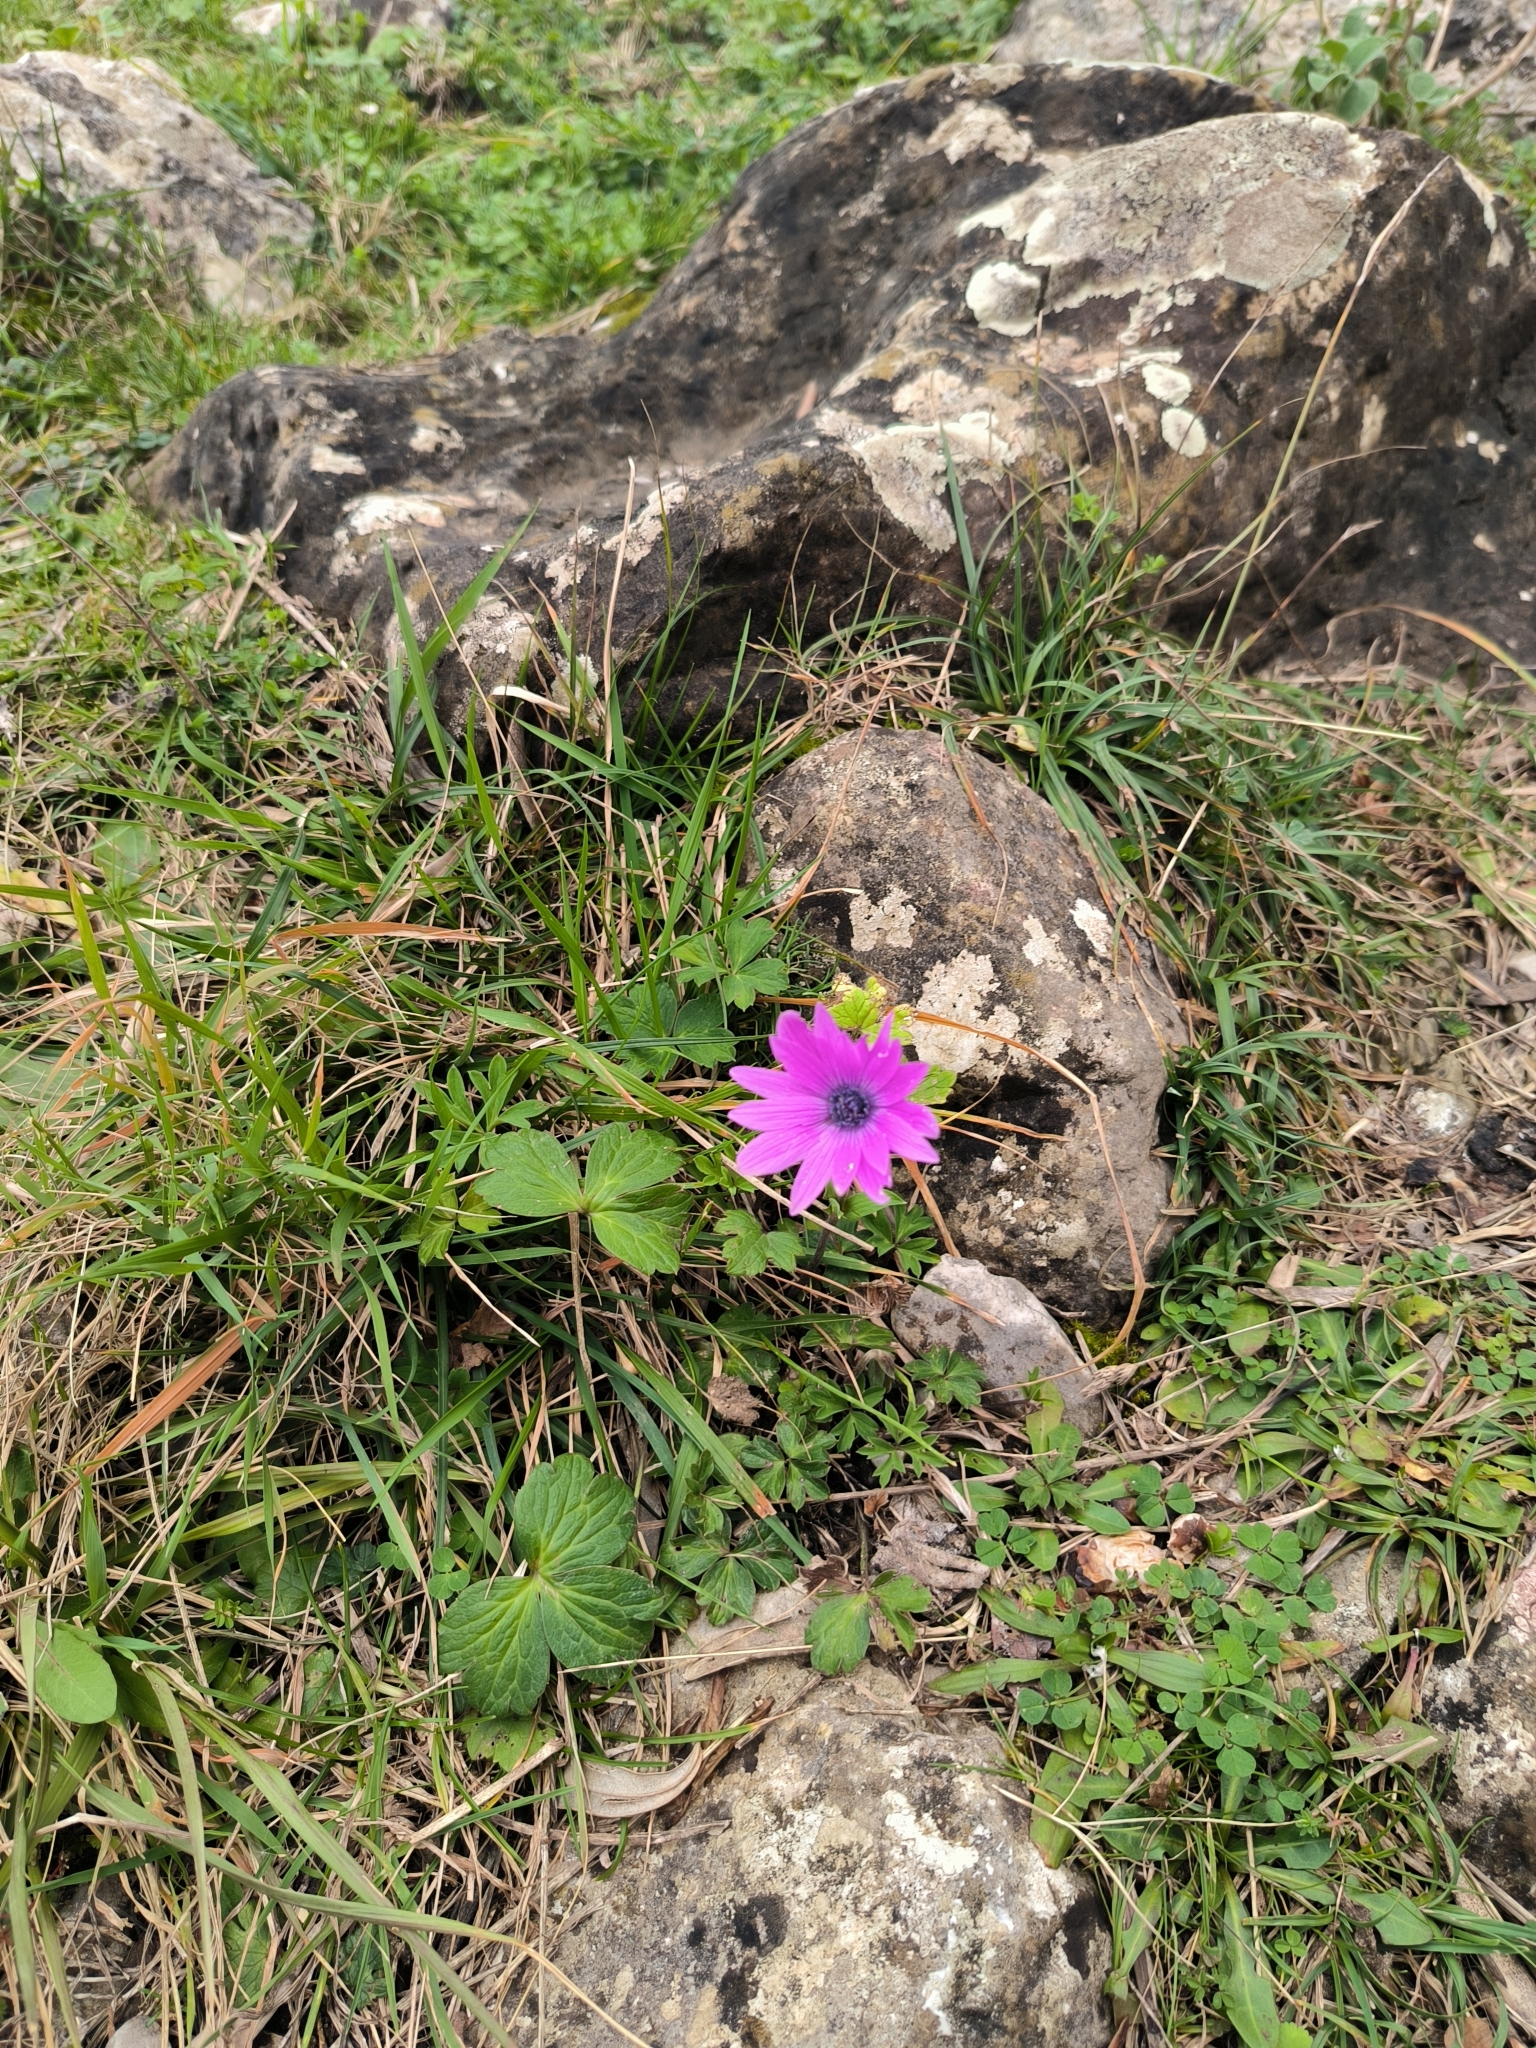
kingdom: Plantae
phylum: Tracheophyta
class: Magnoliopsida
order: Ranunculales
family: Ranunculaceae
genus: Anemone
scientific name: Anemone hortensis
